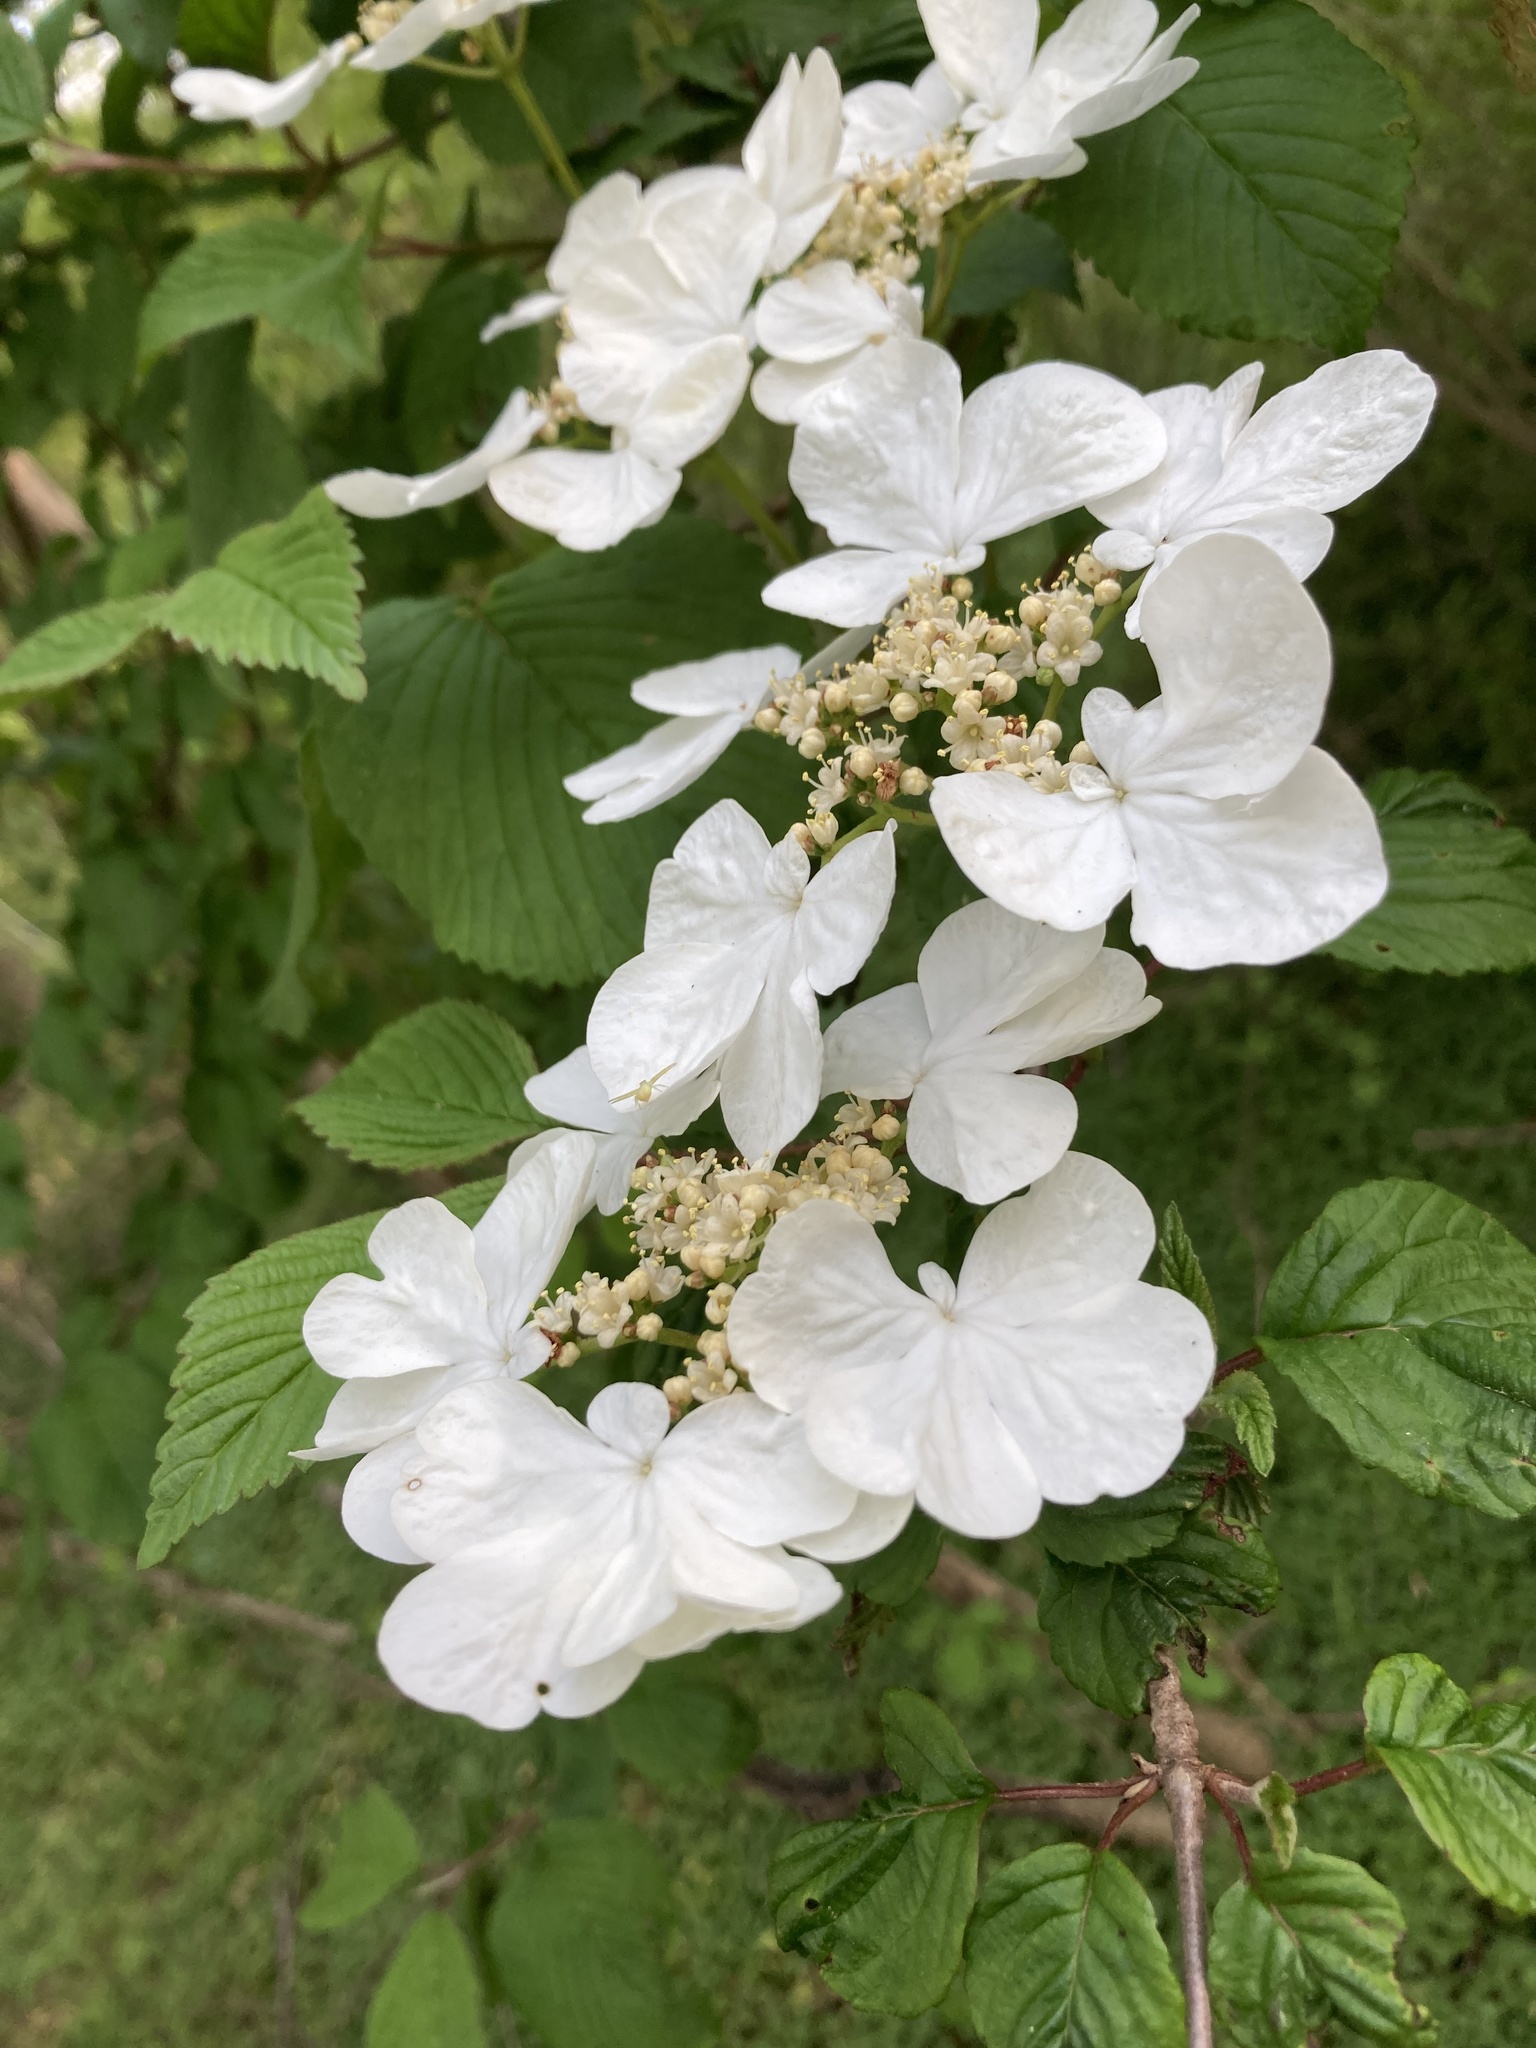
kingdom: Plantae
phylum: Tracheophyta
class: Magnoliopsida
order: Dipsacales
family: Viburnaceae
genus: Viburnum
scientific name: Viburnum plicatum
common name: Japanese snowball
